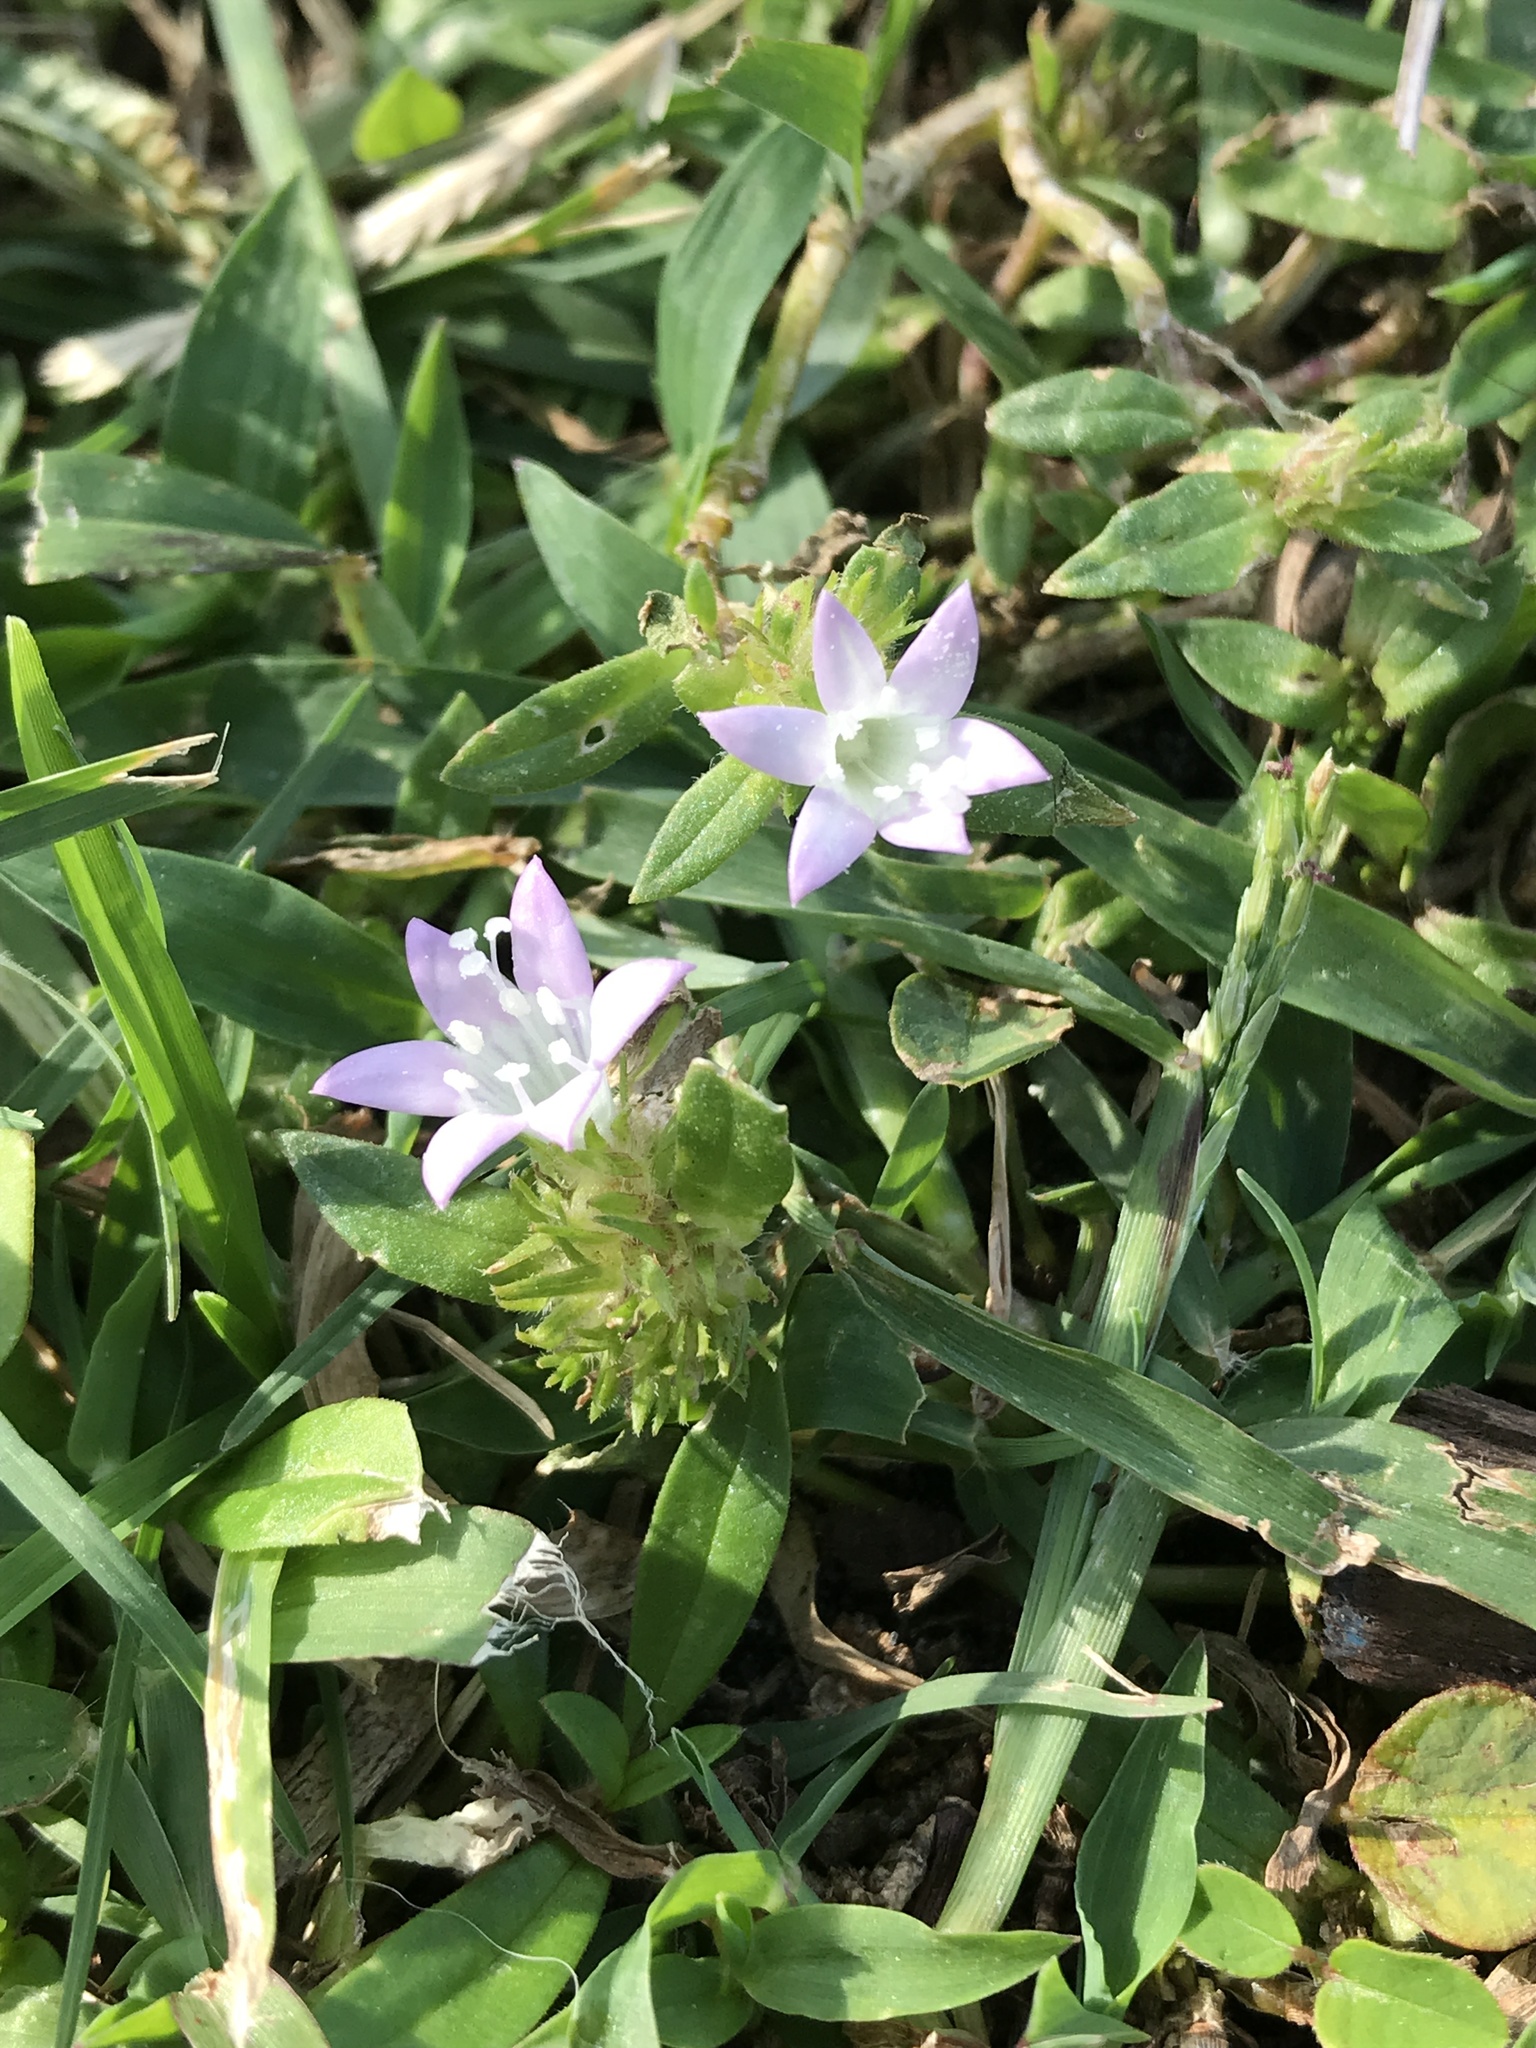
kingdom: Plantae
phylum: Tracheophyta
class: Magnoliopsida
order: Gentianales
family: Rubiaceae
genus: Richardia
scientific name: Richardia grandiflora
